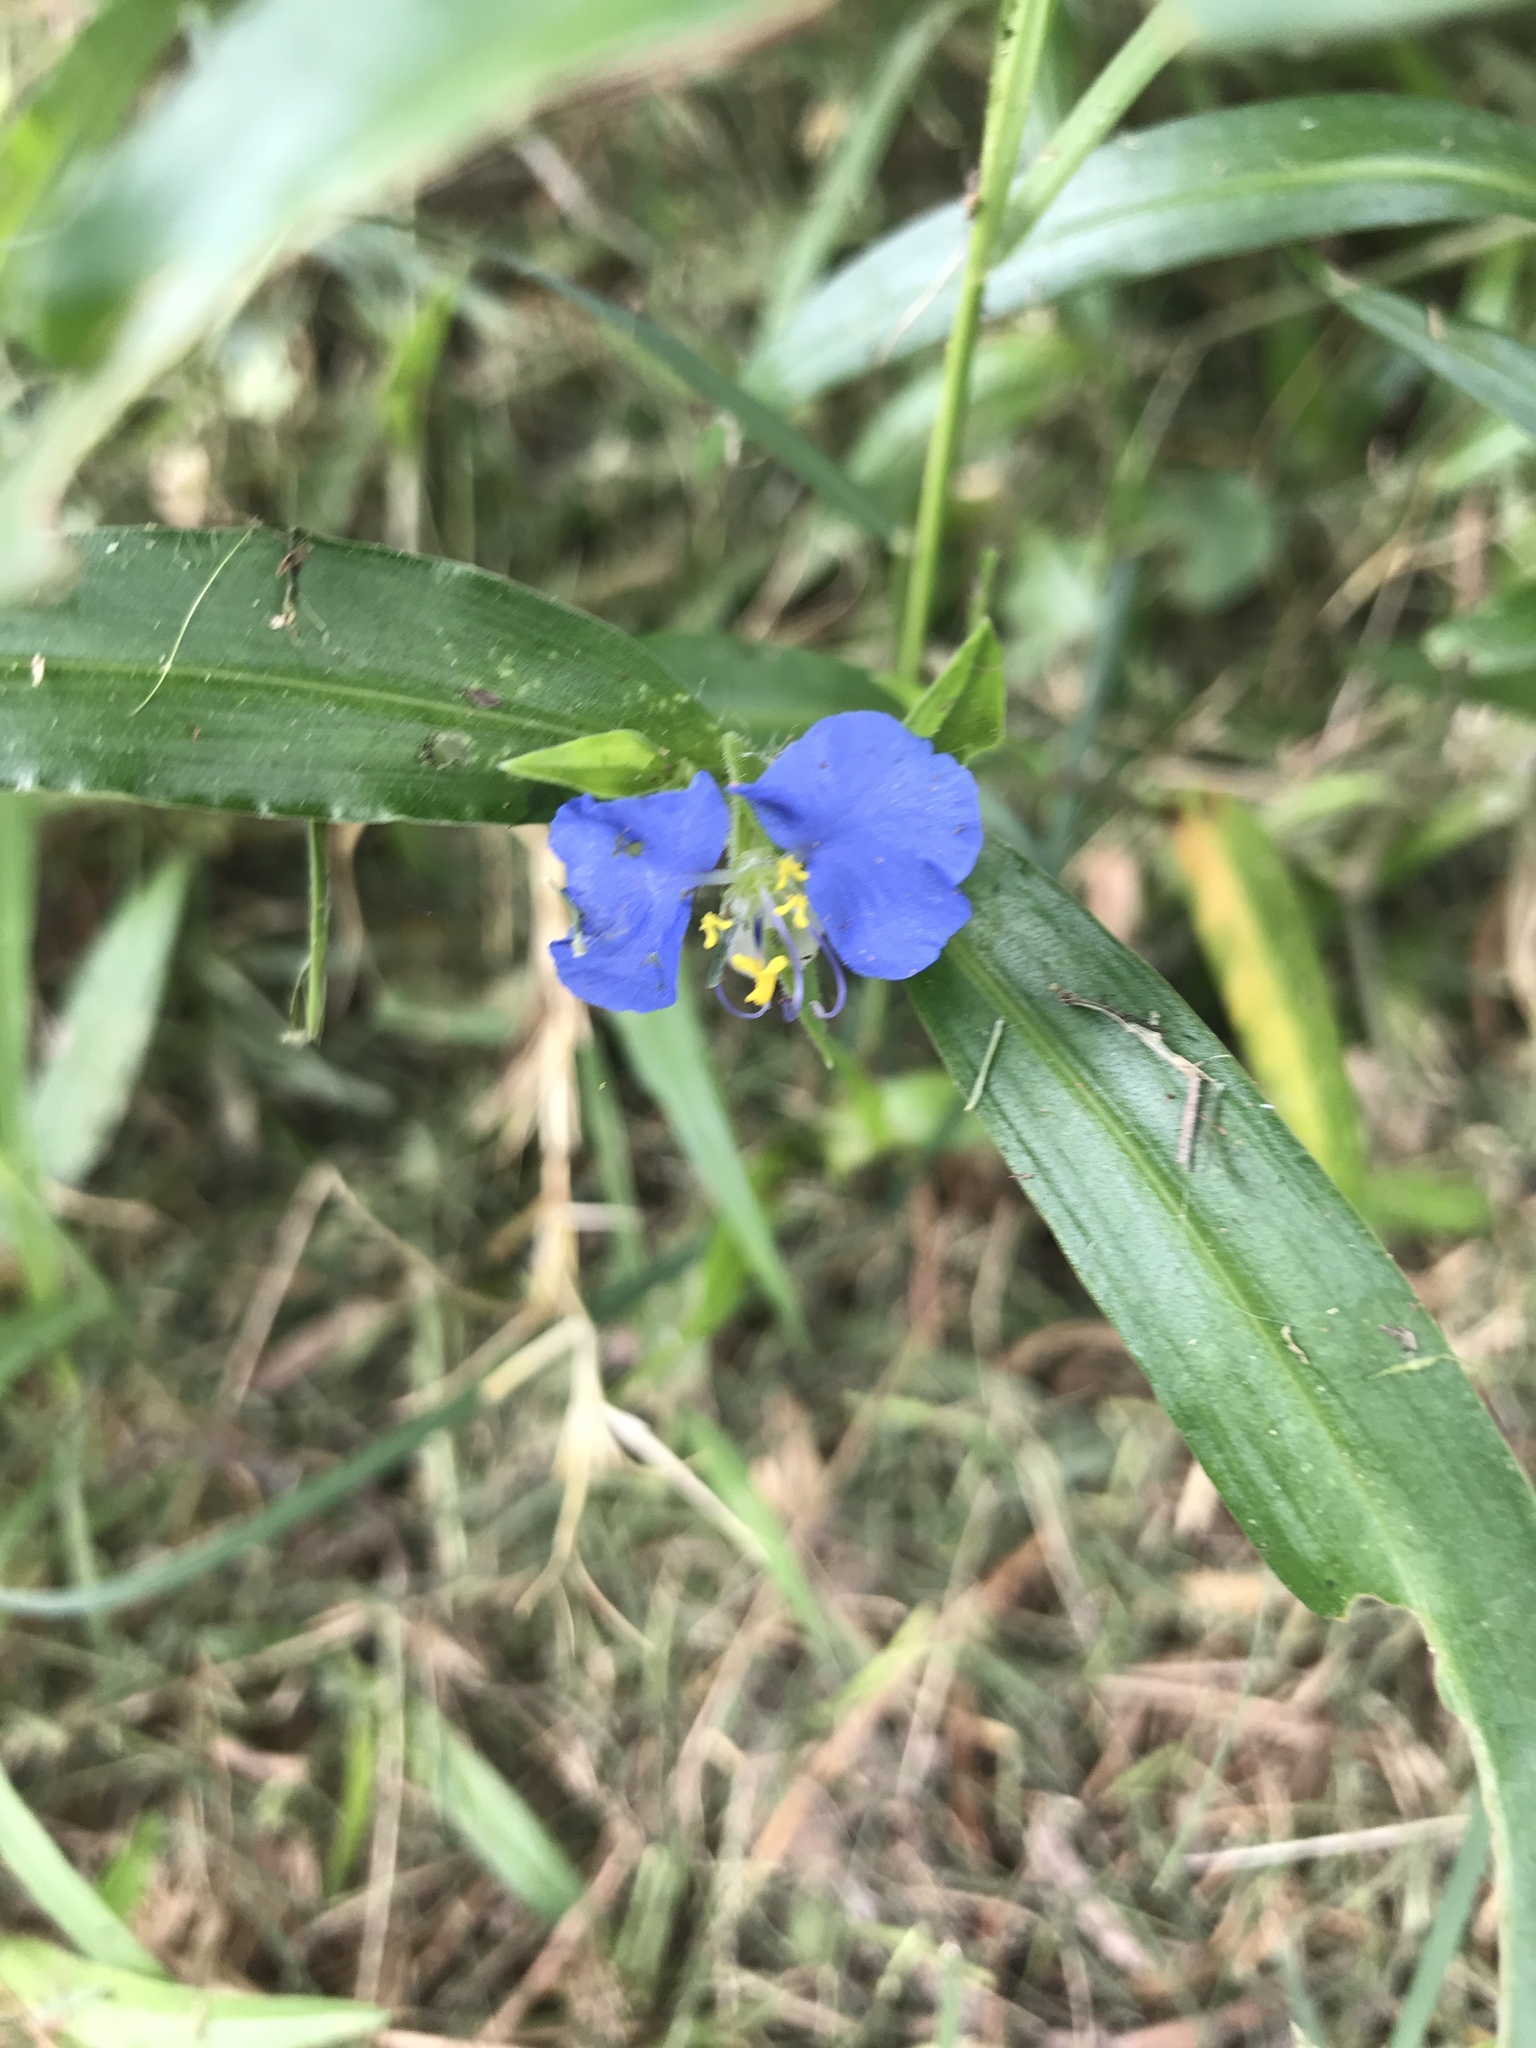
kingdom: Plantae
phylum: Tracheophyta
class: Liliopsida
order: Commelinales
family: Commelinaceae
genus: Commelina
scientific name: Commelina erecta
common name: Blousel blommetjie
